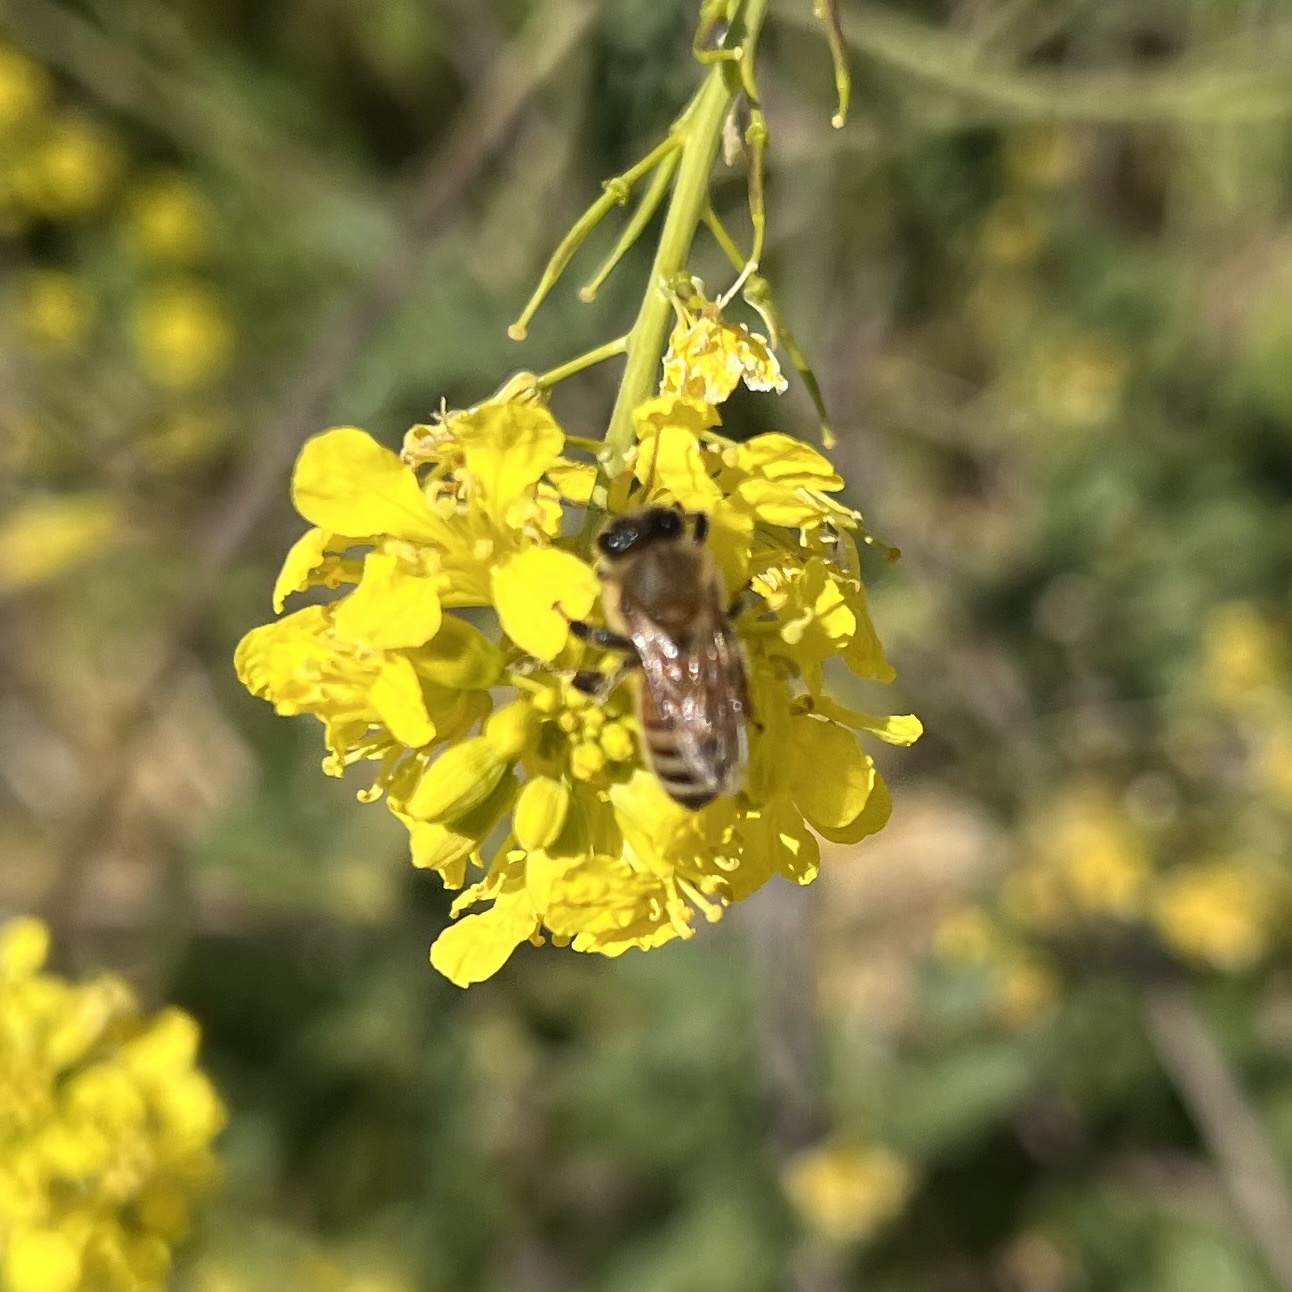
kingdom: Animalia
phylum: Arthropoda
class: Insecta
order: Hymenoptera
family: Apidae
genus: Apis
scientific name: Apis mellifera
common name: Honey bee
